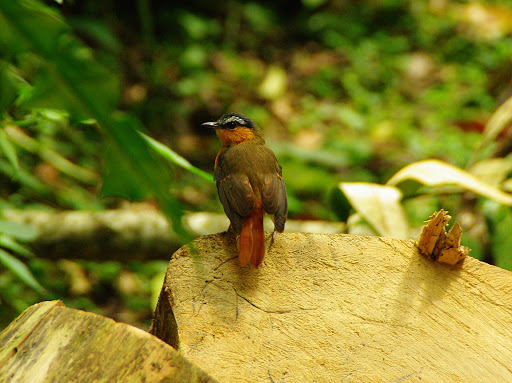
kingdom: Animalia
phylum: Chordata
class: Aves
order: Passeriformes
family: Muscicapidae
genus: Cossypha
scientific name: Cossypha polioptera
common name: Grey-winged robin-chat
